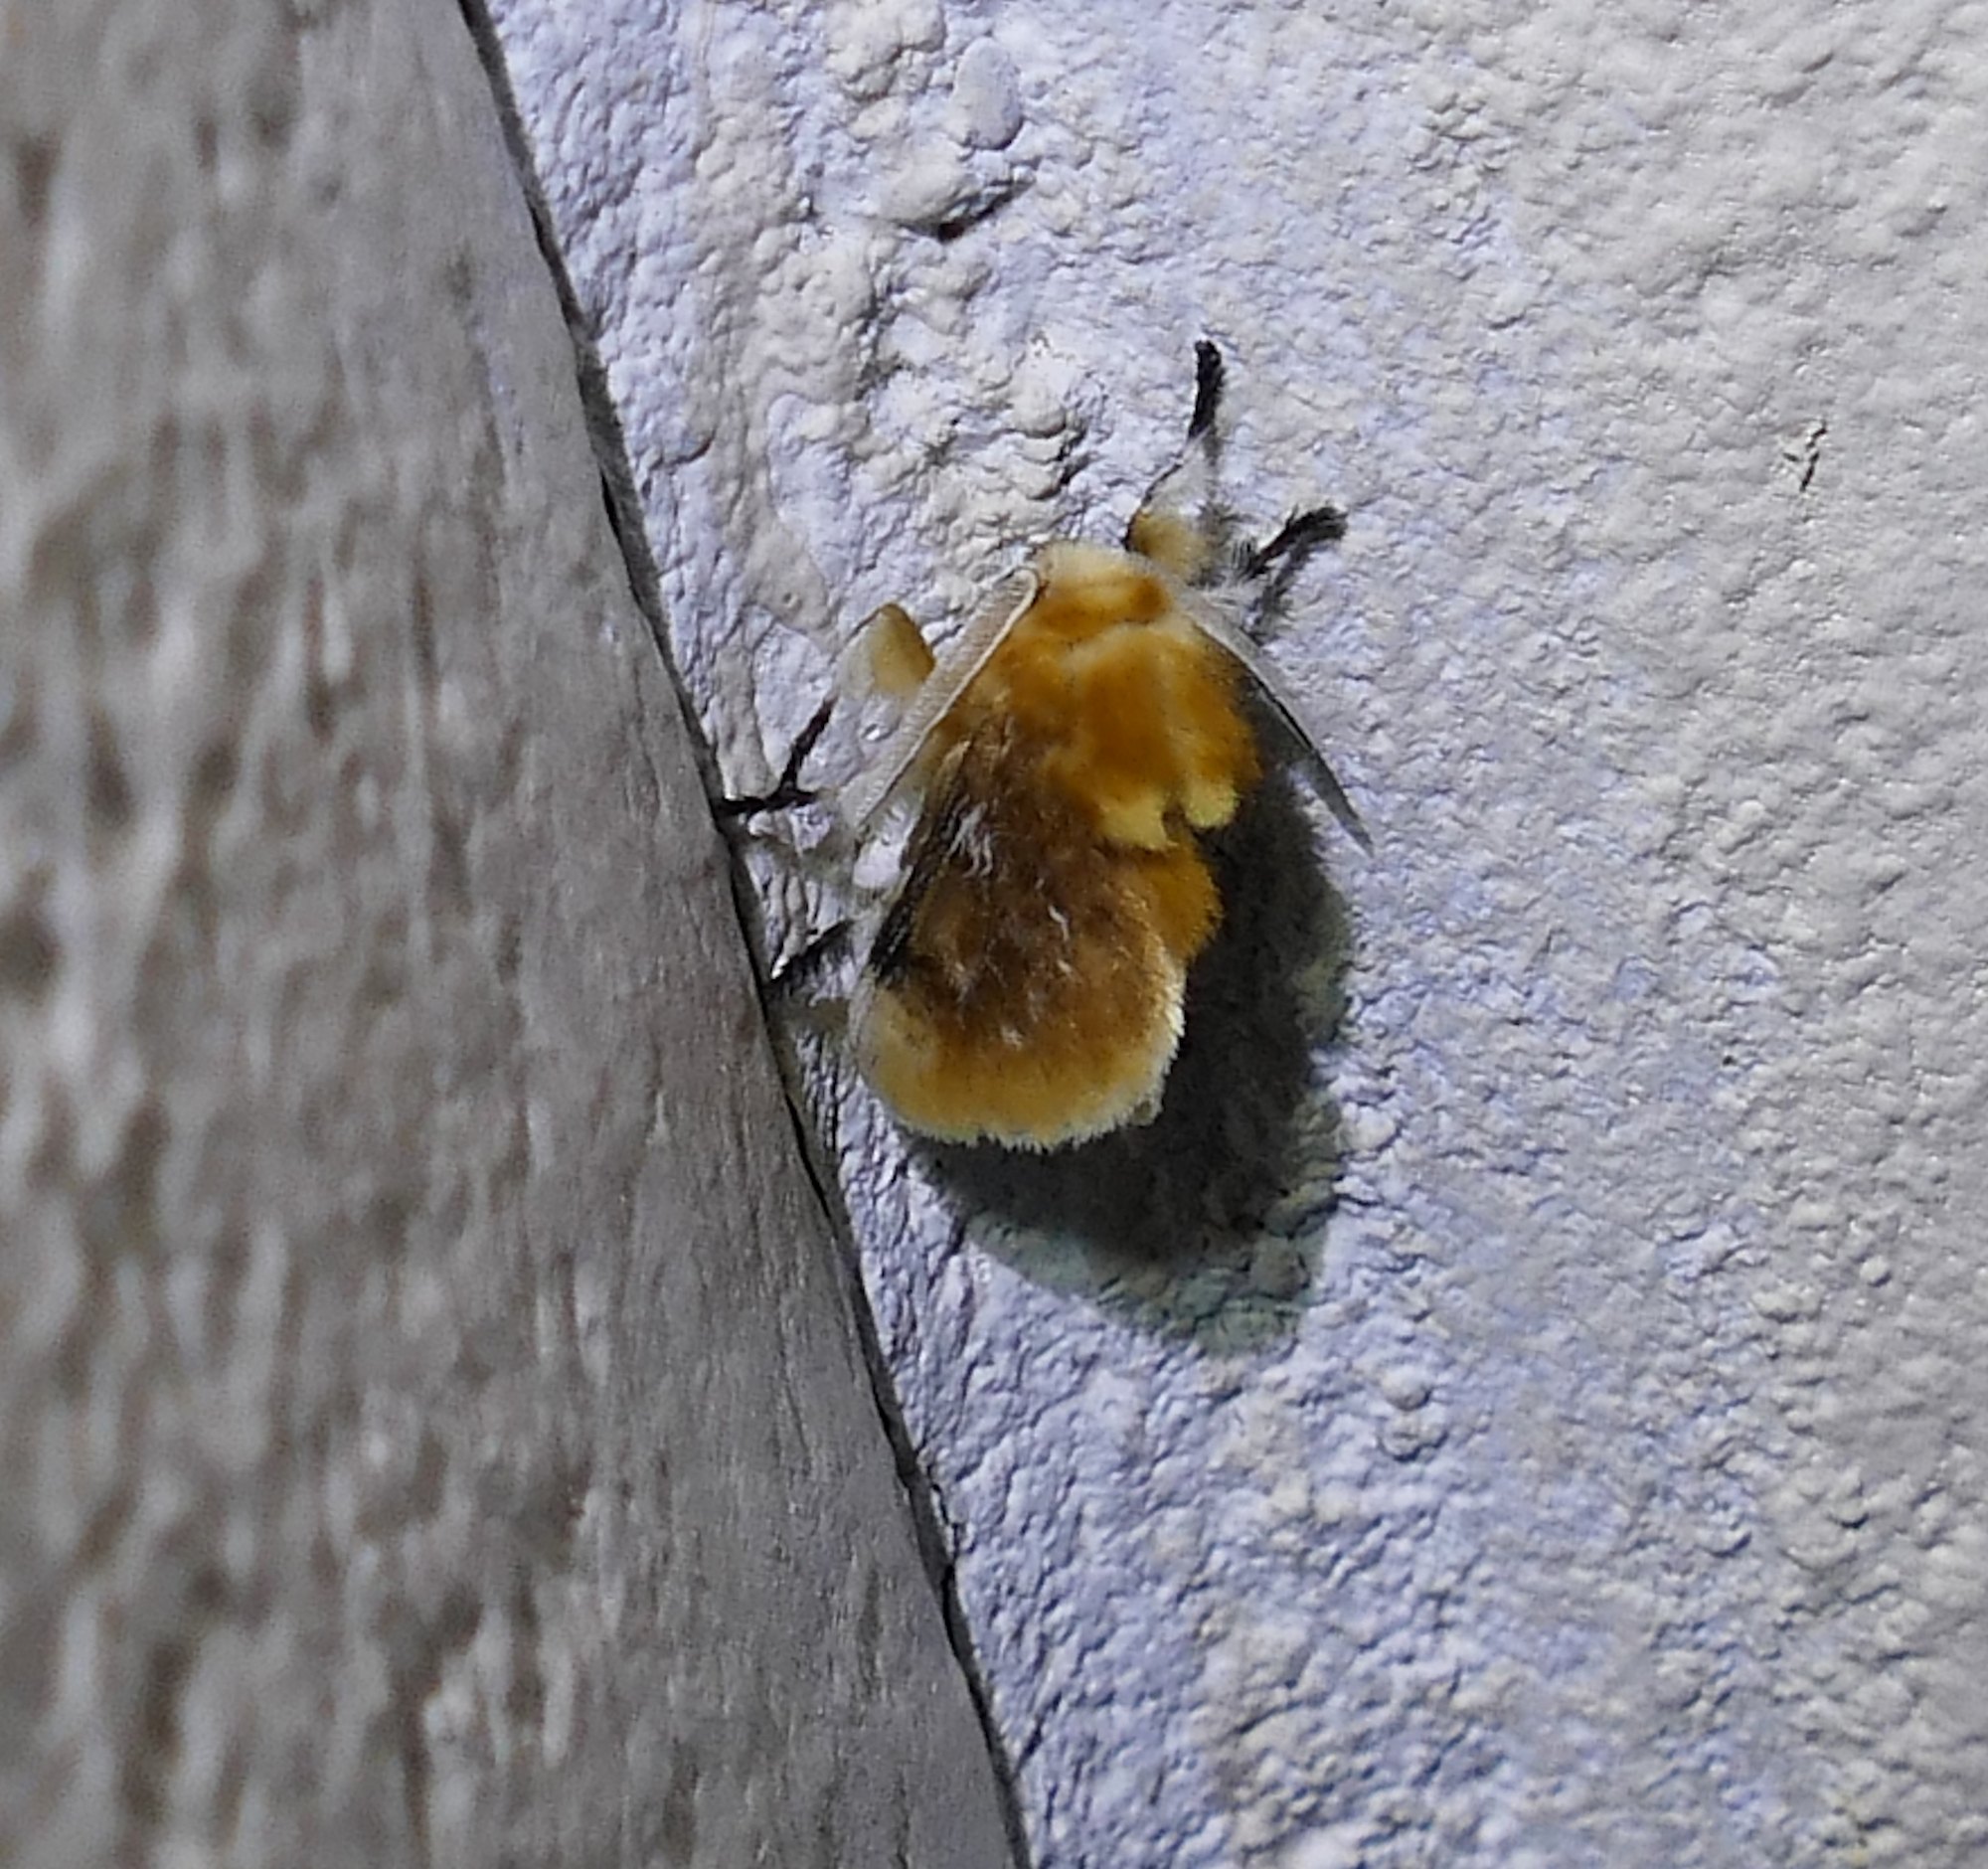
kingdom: Animalia
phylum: Arthropoda
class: Insecta
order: Lepidoptera
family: Megalopygidae
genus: Megalopyge
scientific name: Megalopyge opercularis
